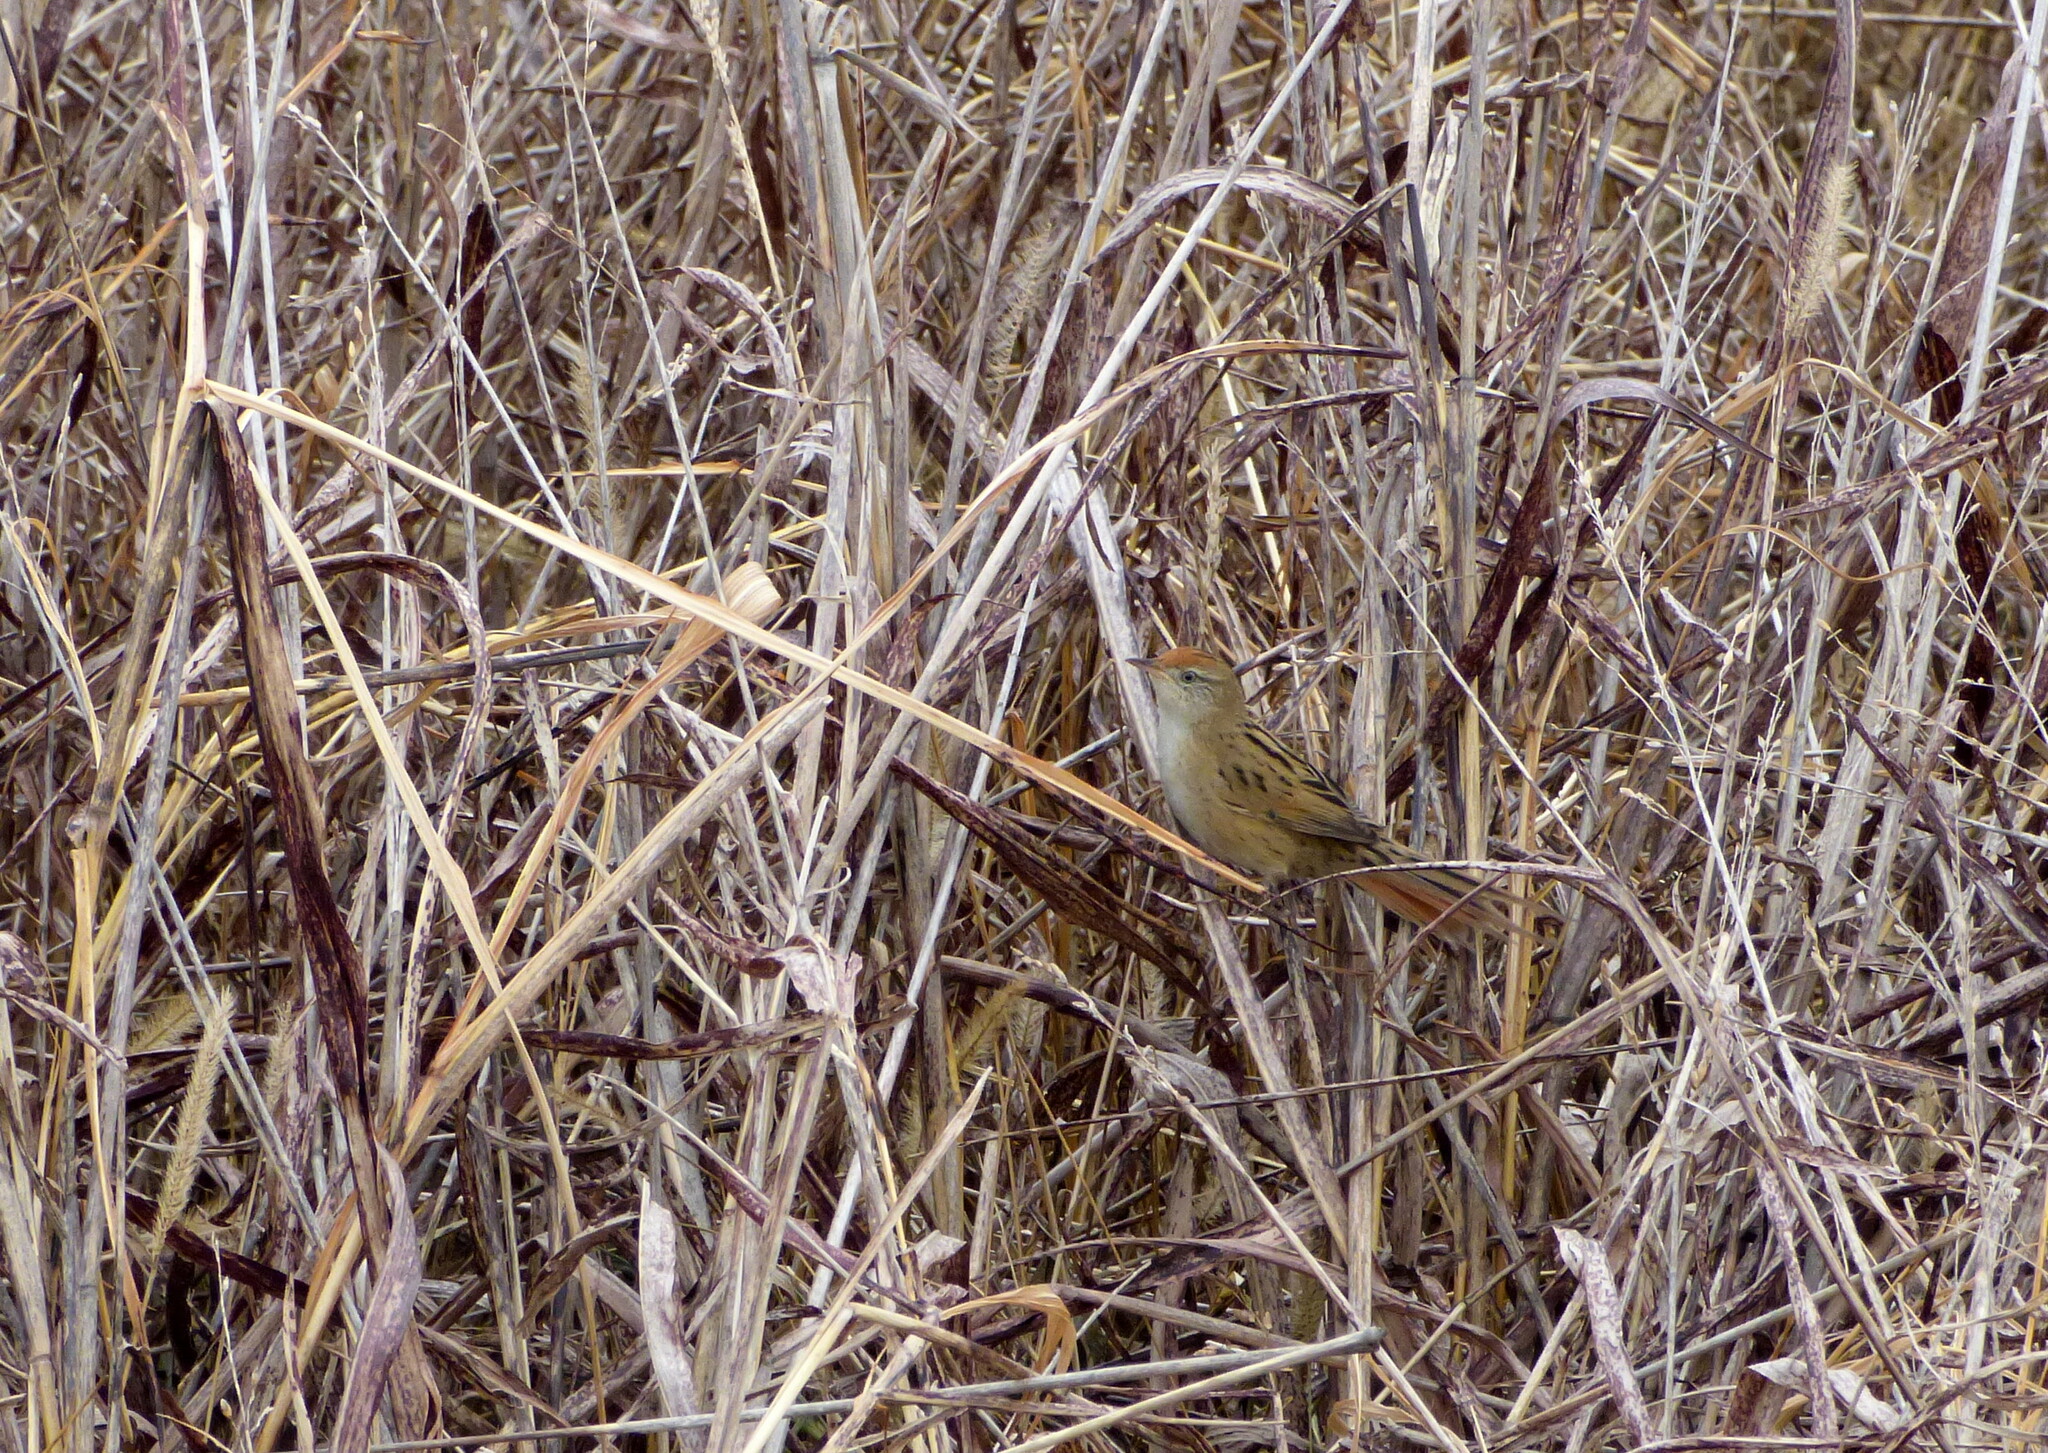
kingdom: Animalia
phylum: Chordata
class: Aves
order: Passeriformes
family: Furnariidae
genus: Spartonoica
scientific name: Spartonoica maluroides
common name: Bay-capped wren-spinetail
